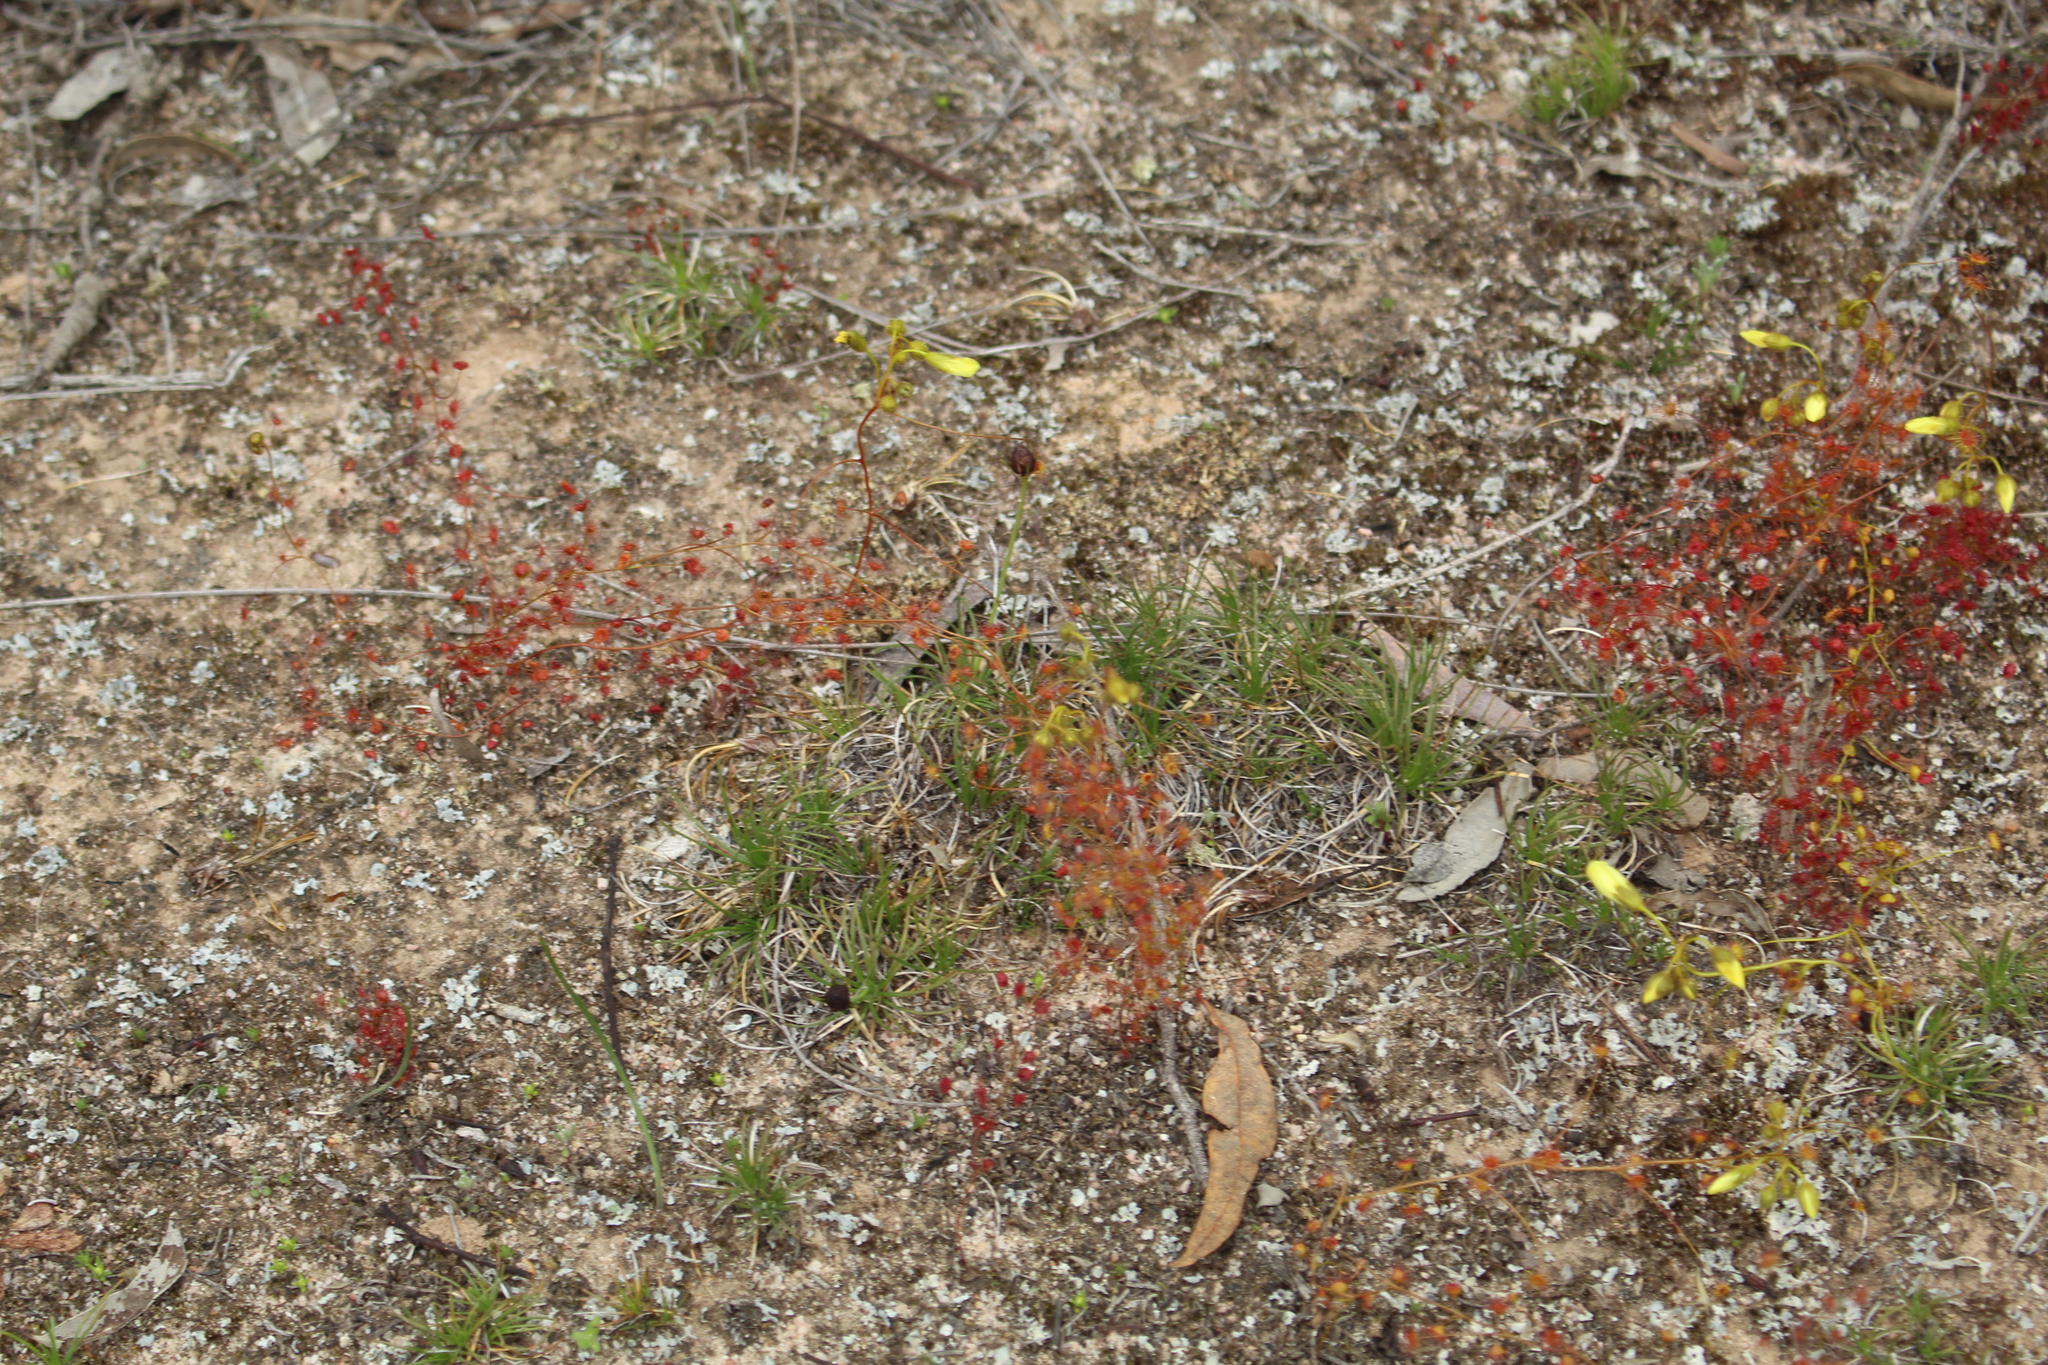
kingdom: Plantae
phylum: Tracheophyta
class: Magnoliopsida
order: Caryophyllales
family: Droseraceae
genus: Drosera
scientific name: Drosera subhirtella
